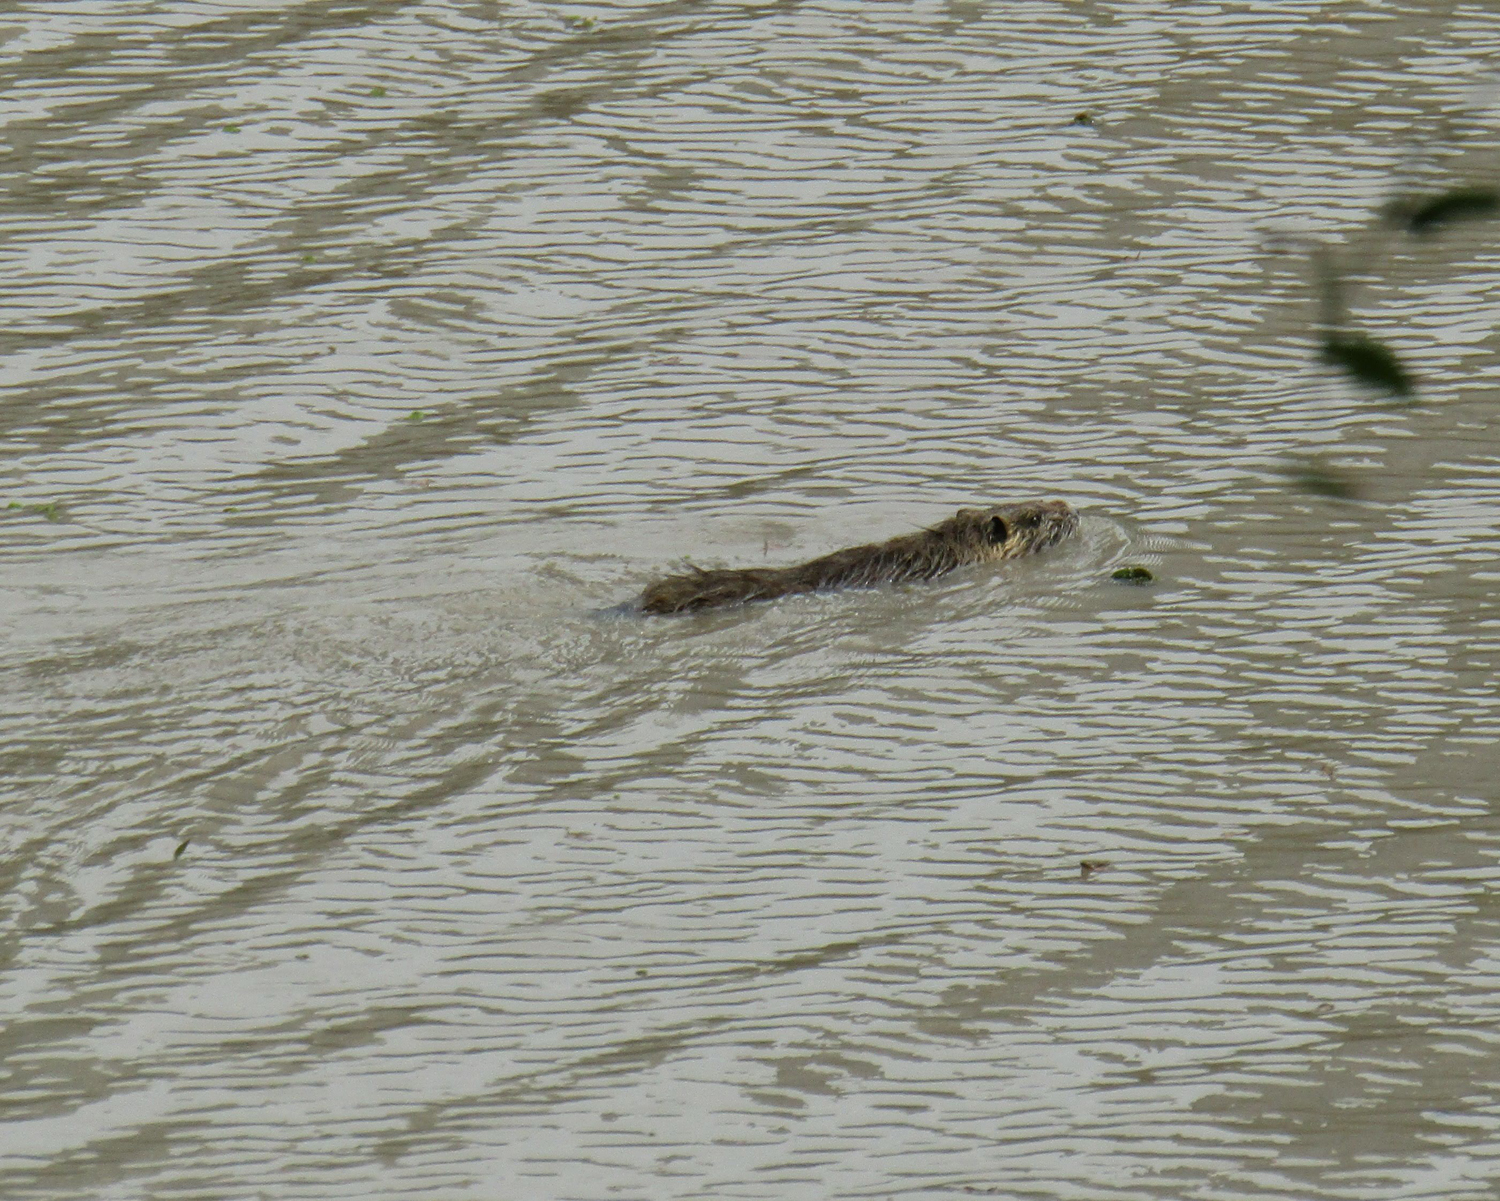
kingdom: Animalia
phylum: Chordata
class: Mammalia
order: Rodentia
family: Myocastoridae
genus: Myocastor
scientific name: Myocastor coypus
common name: Coypu
